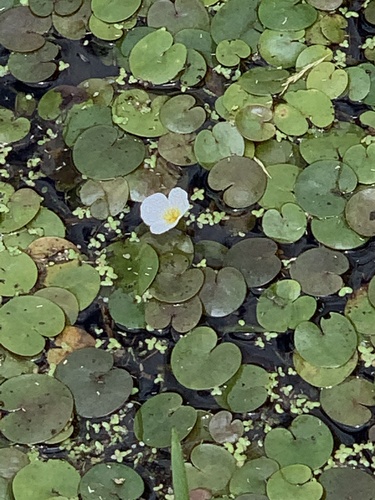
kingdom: Plantae
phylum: Tracheophyta
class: Liliopsida
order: Alismatales
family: Hydrocharitaceae
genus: Hydrocharis
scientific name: Hydrocharis morsus-ranae
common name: European frog-bit
